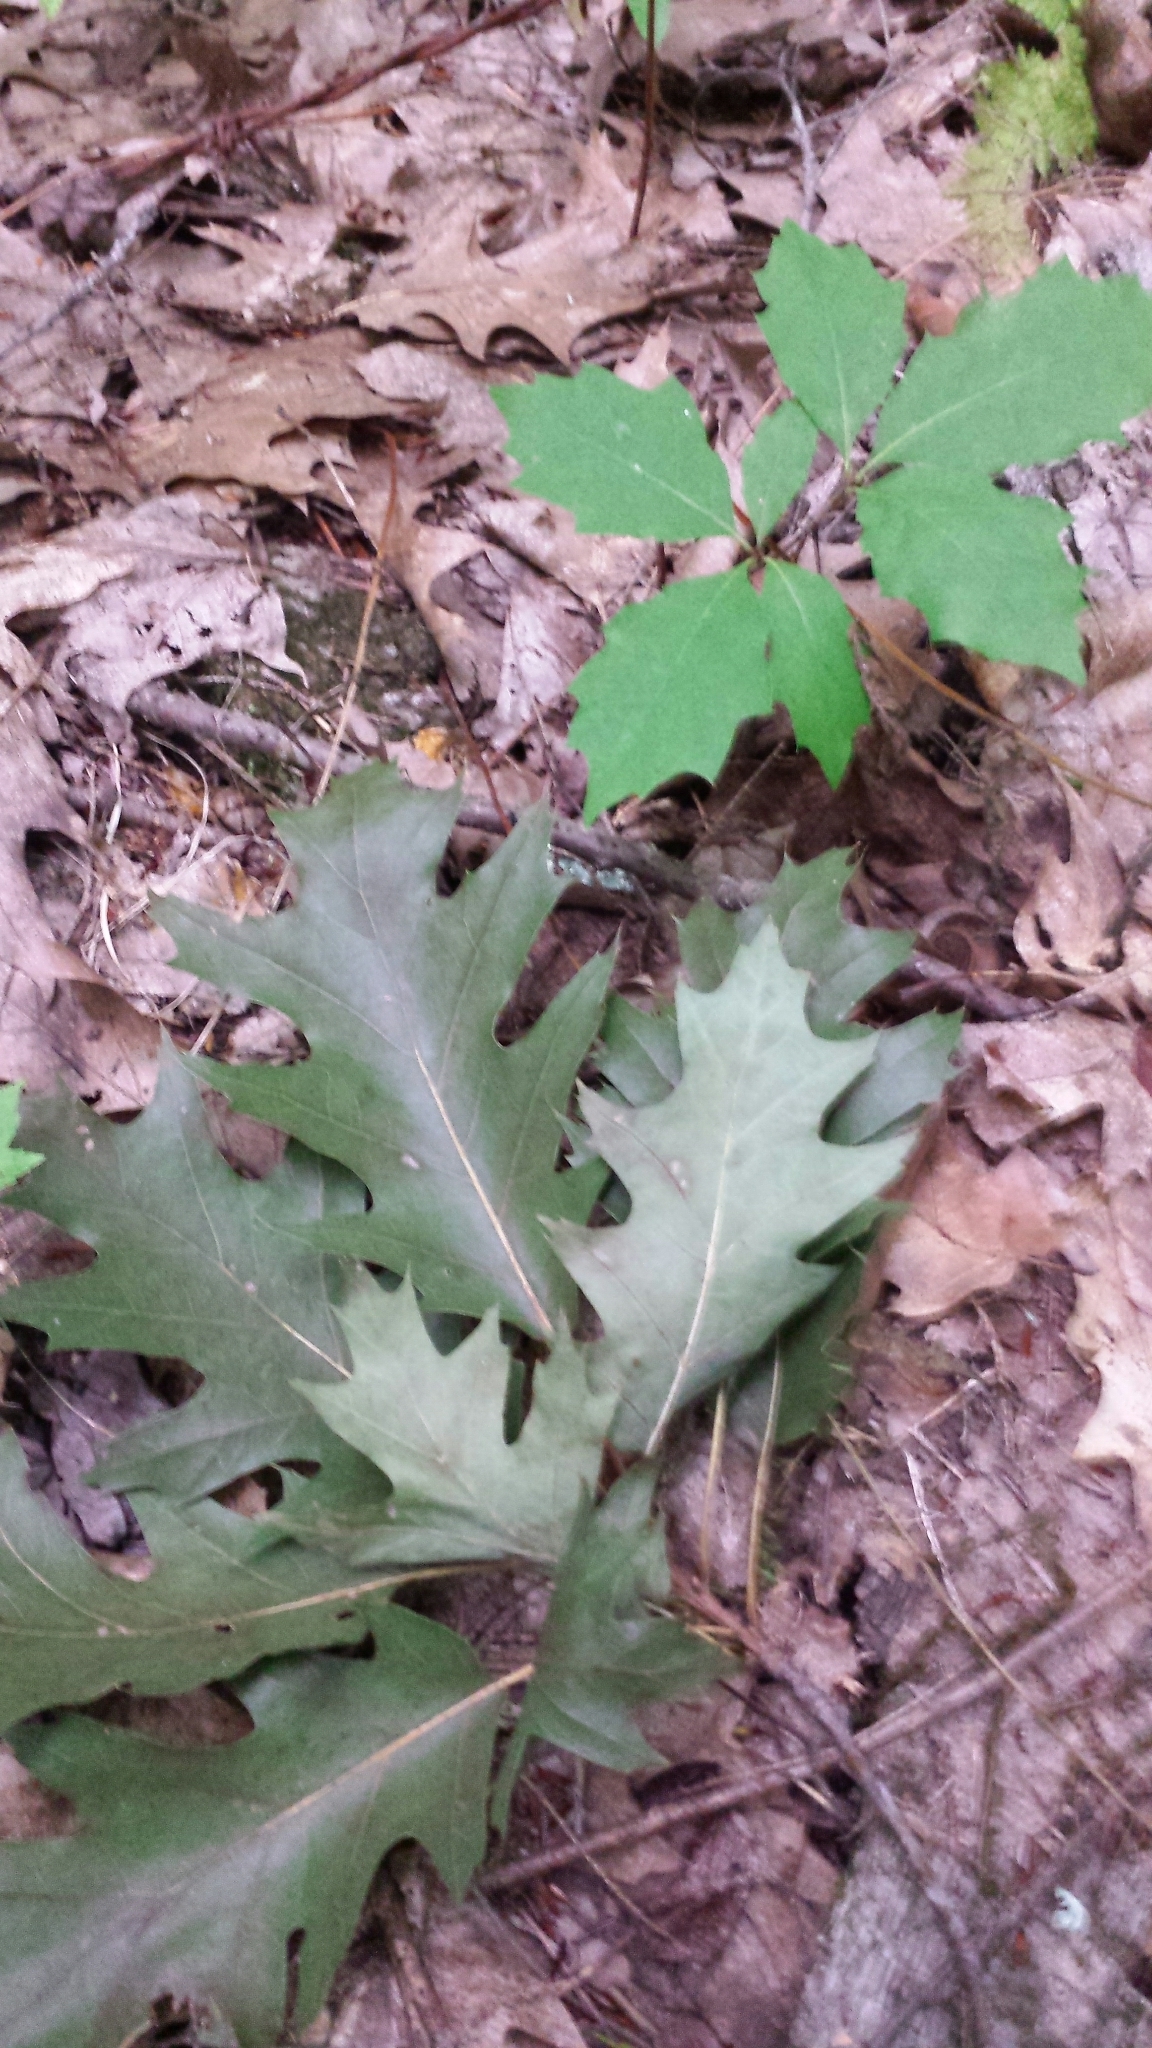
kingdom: Plantae
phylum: Tracheophyta
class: Magnoliopsida
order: Fagales
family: Fagaceae
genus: Quercus
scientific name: Quercus rubra
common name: Red oak
